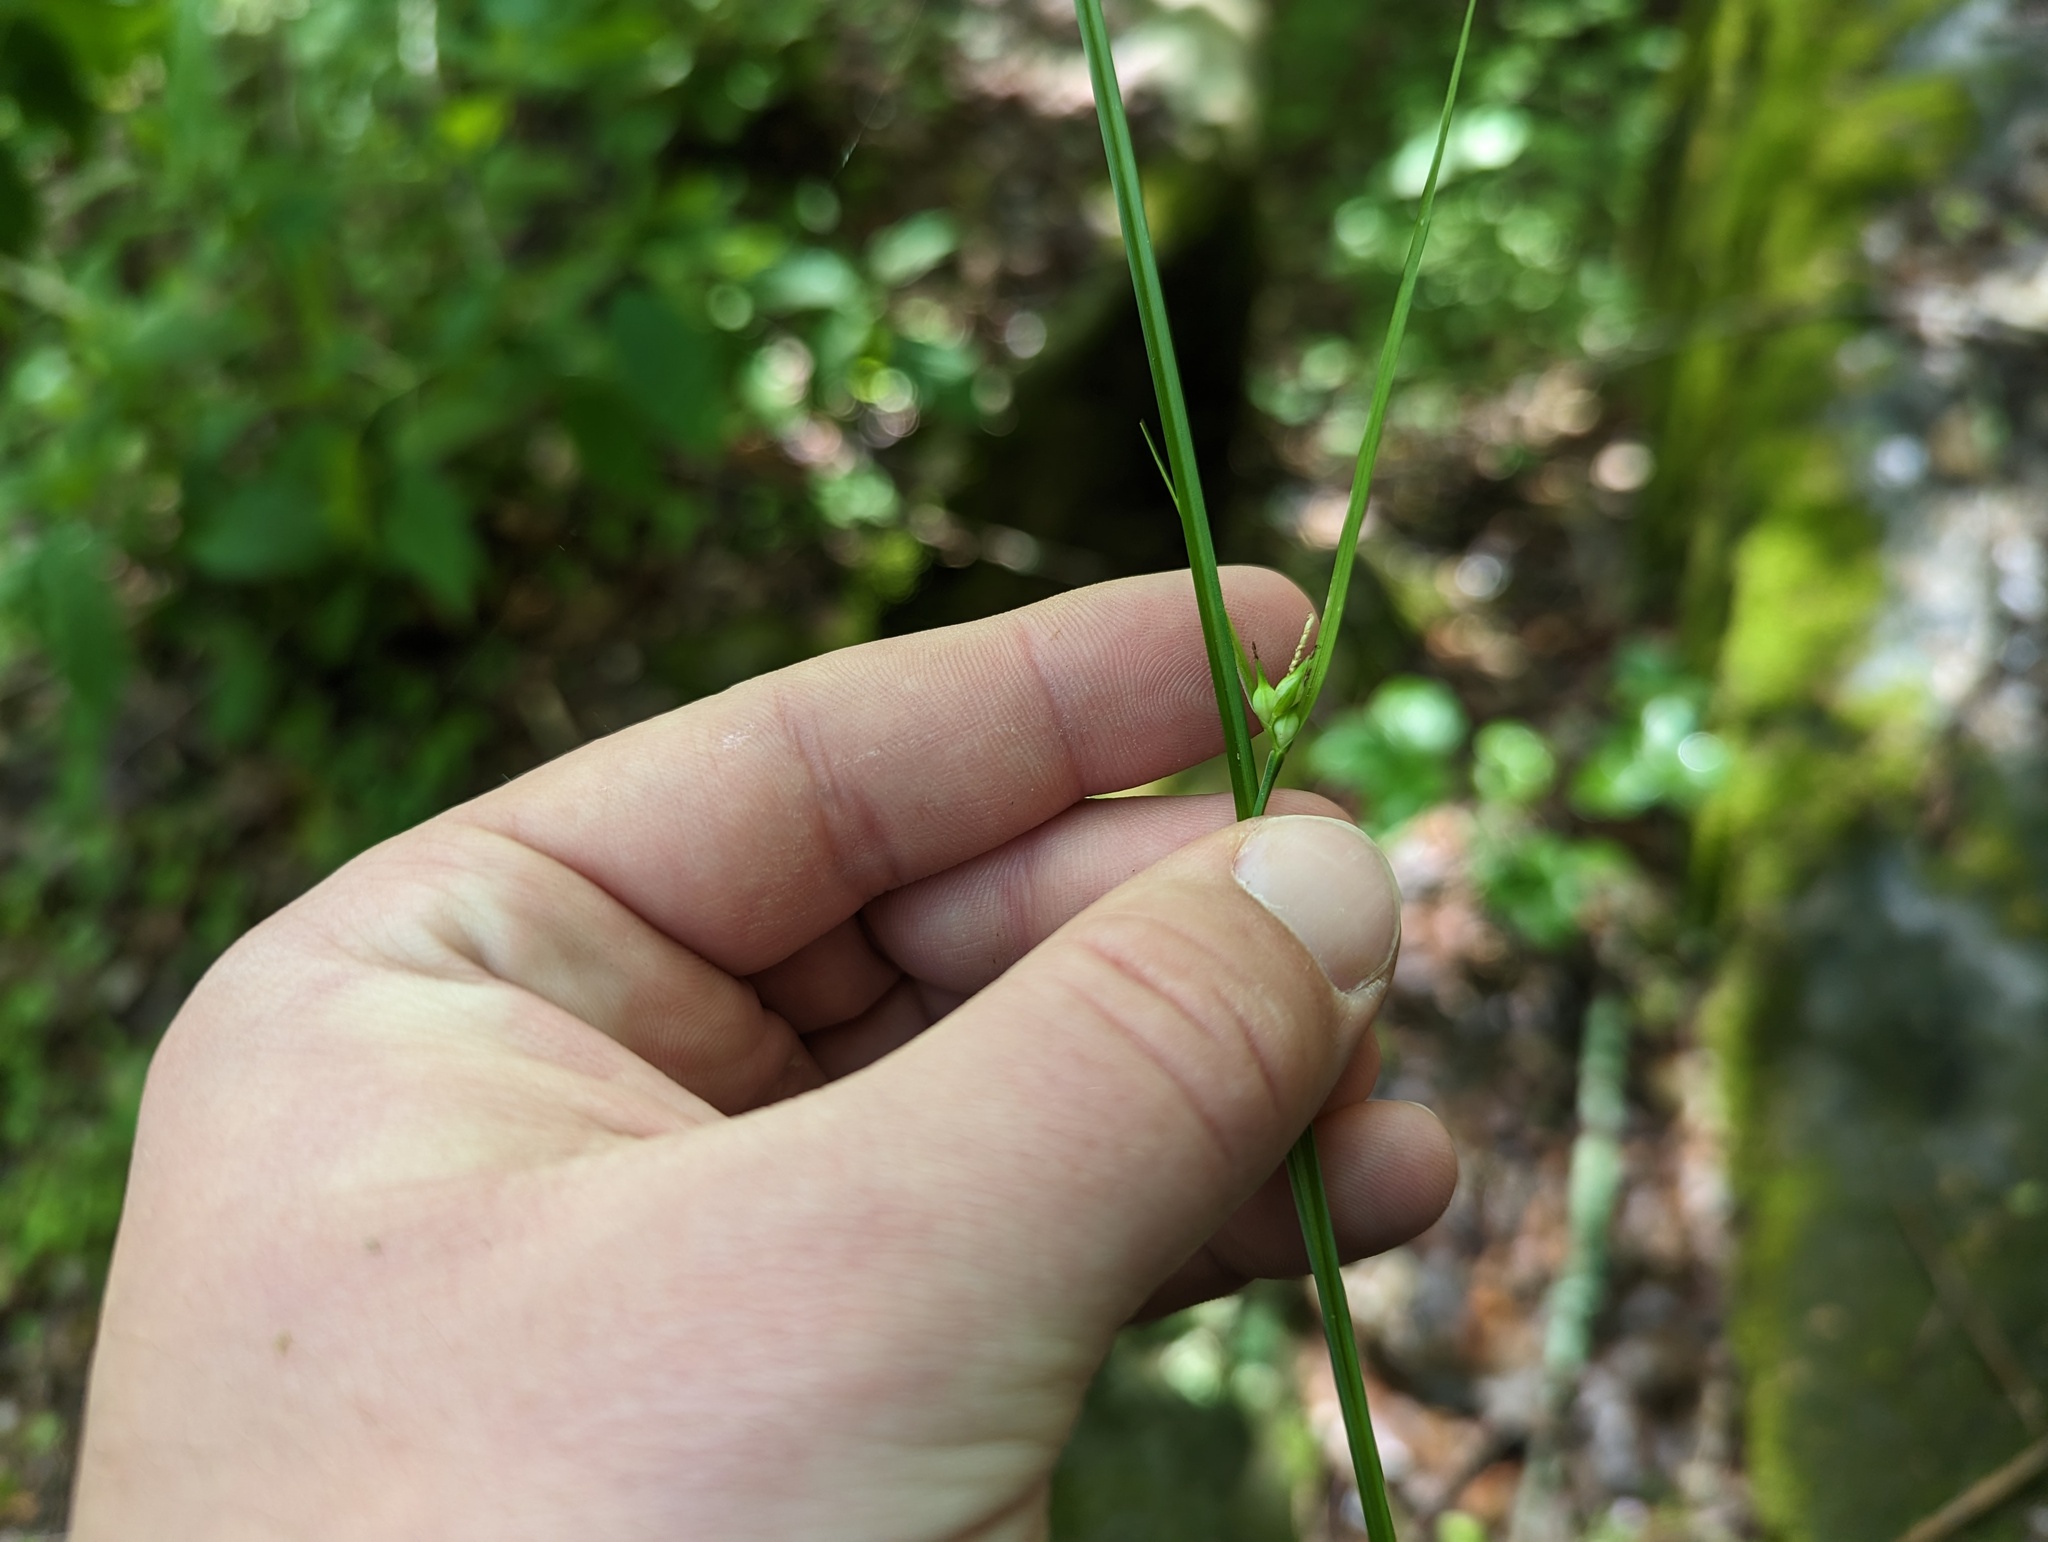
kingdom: Plantae
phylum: Tracheophyta
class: Liliopsida
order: Poales
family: Cyperaceae
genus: Carex
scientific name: Carex jamesii
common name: Grass sedge
